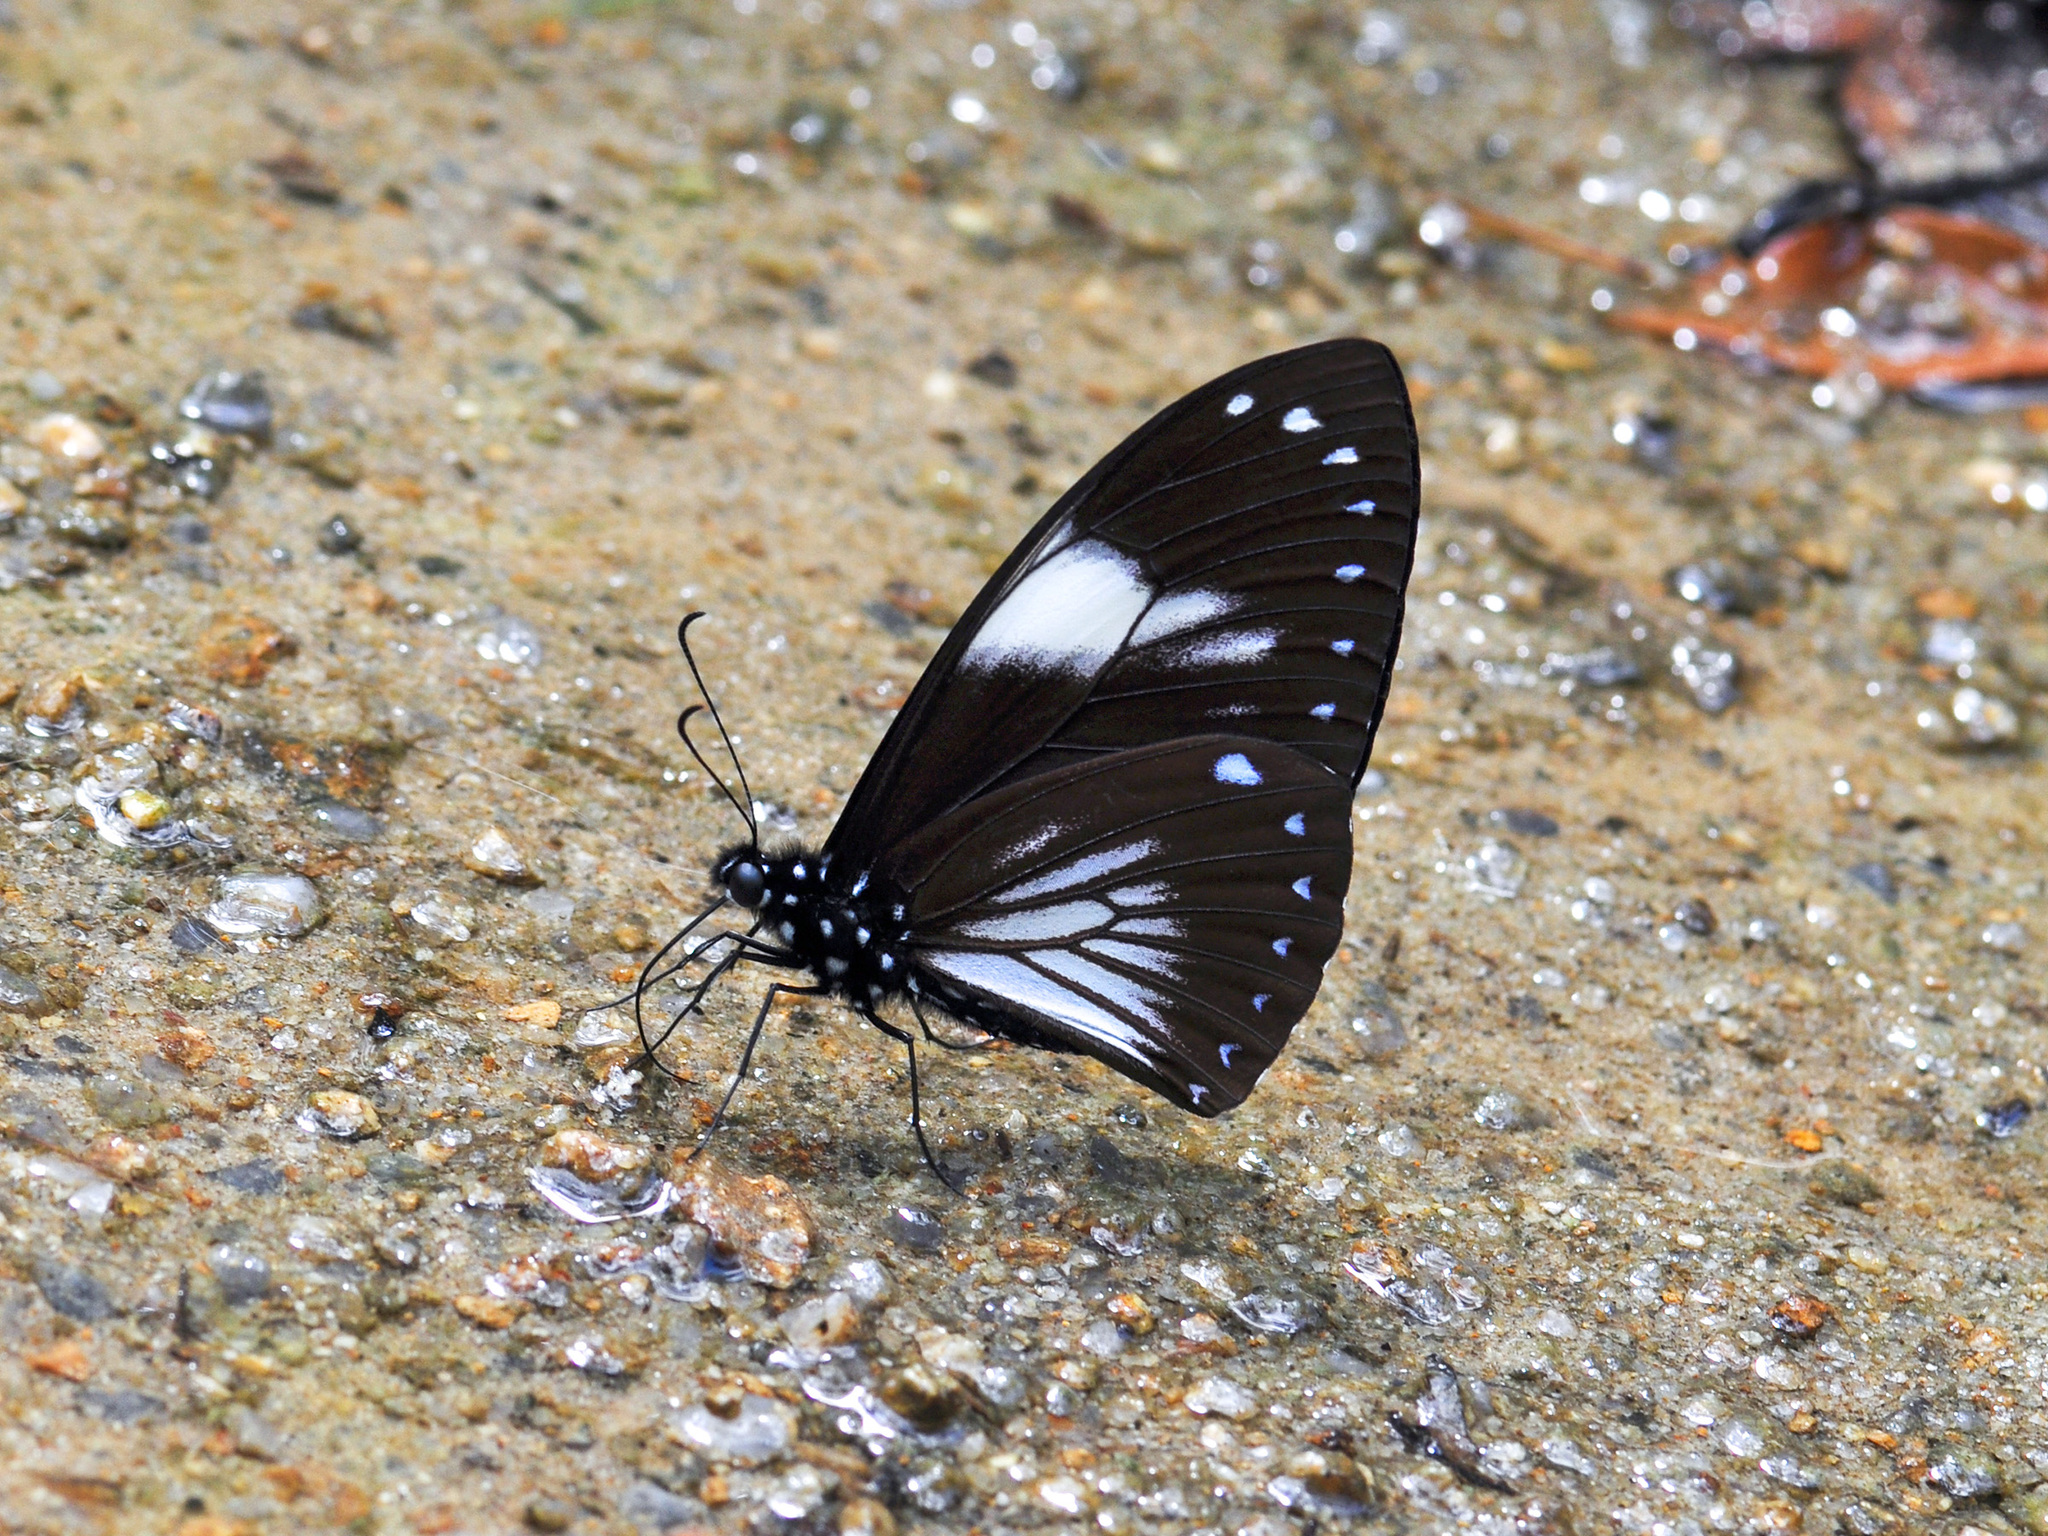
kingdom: Animalia
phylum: Arthropoda
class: Insecta
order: Lepidoptera
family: Papilionidae
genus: Papilio
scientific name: Papilio paradoxa
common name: Great blue mime swallowtail
